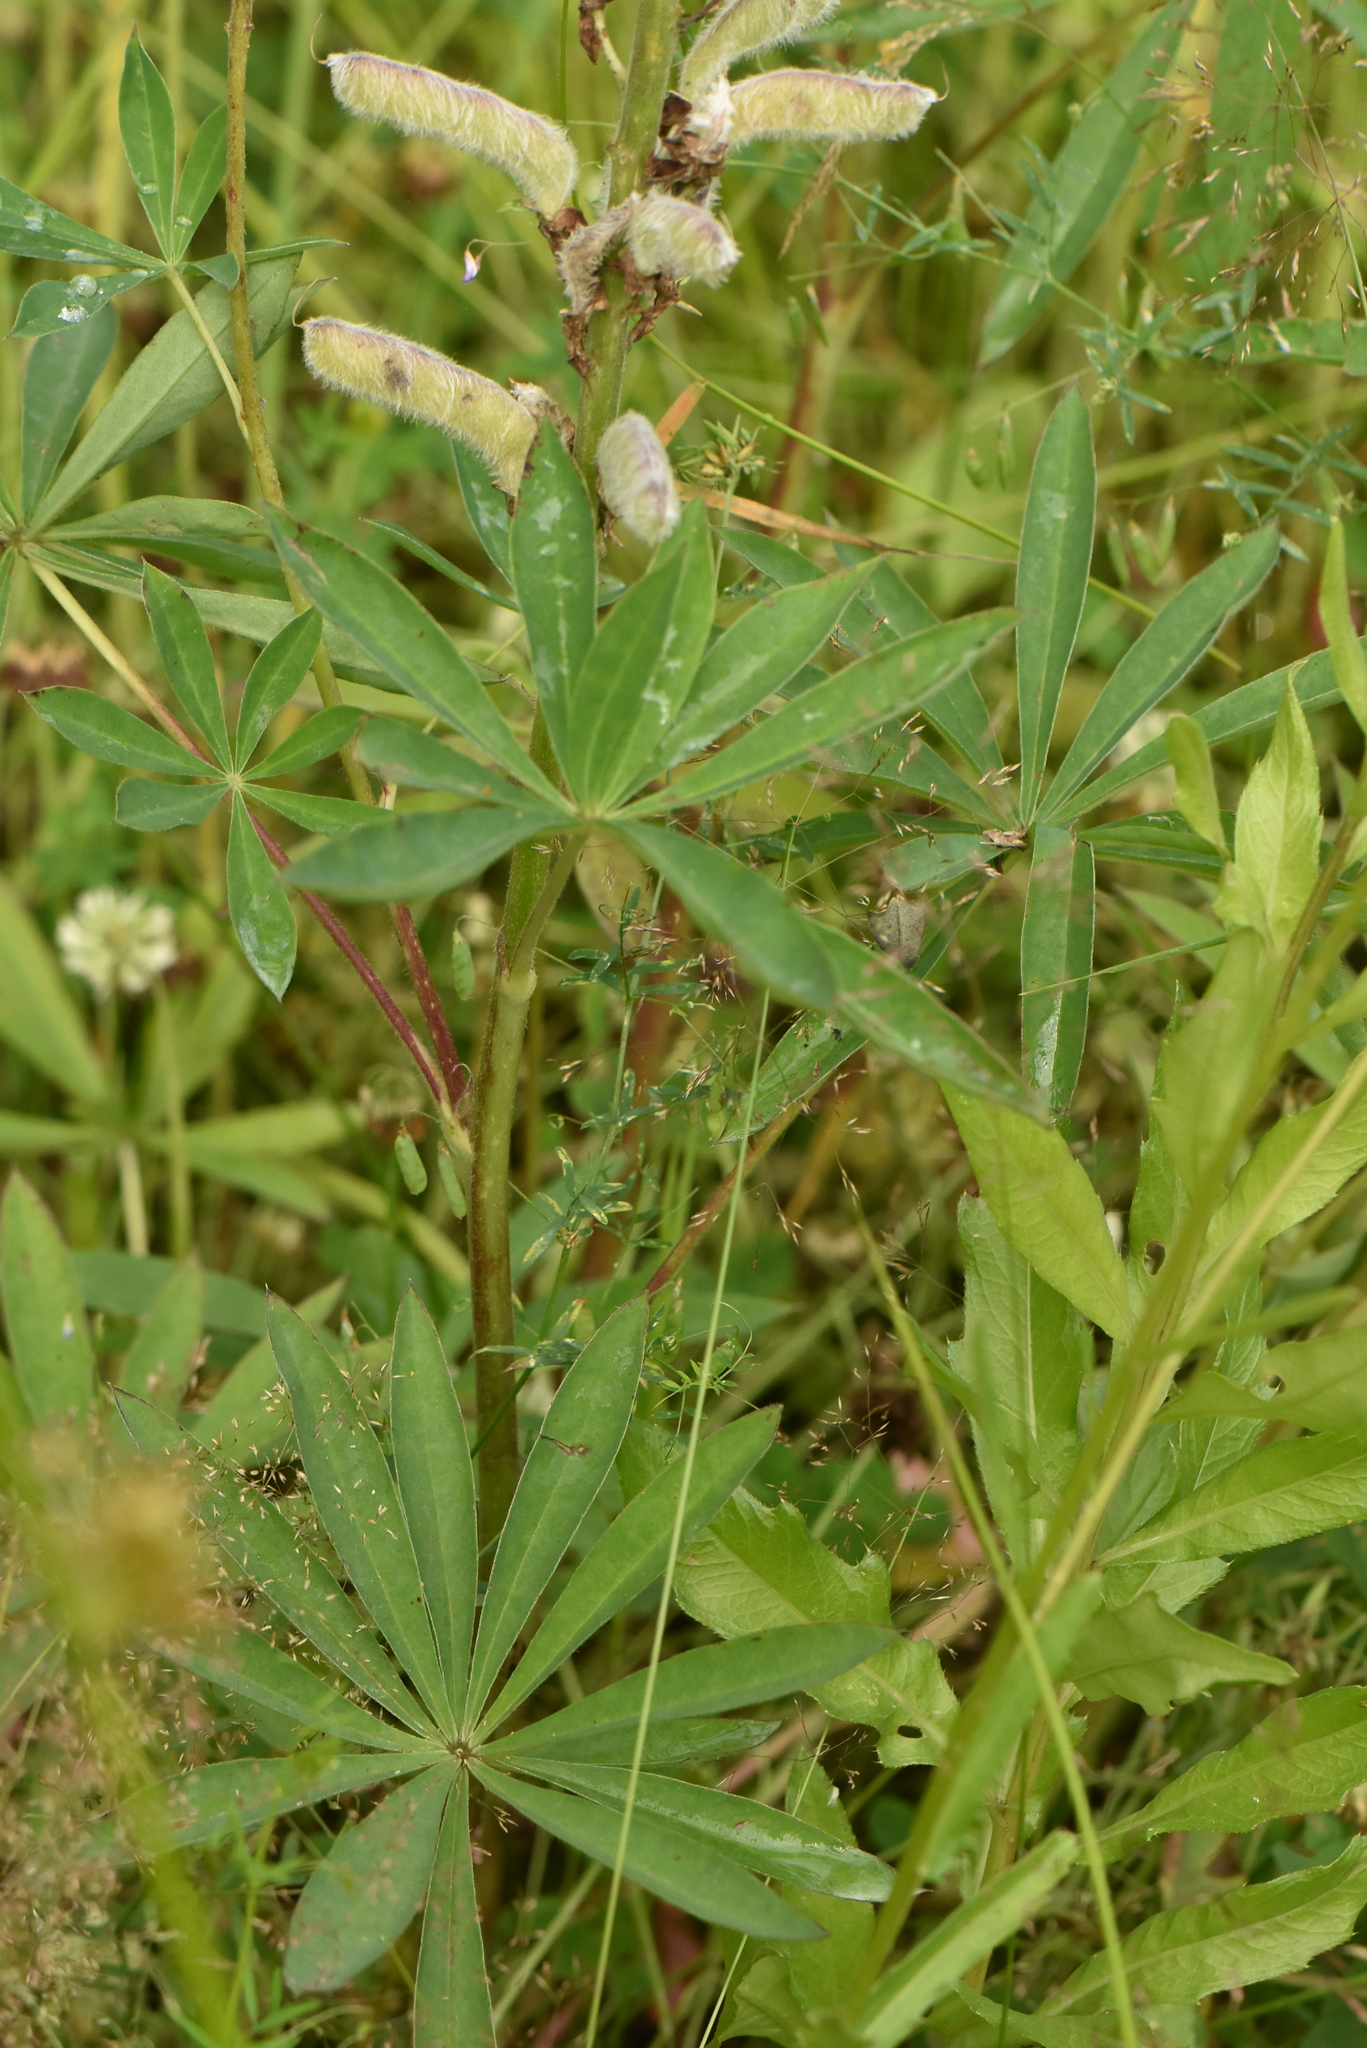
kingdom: Plantae
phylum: Tracheophyta
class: Magnoliopsida
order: Fabales
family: Fabaceae
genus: Lupinus
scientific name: Lupinus polyphyllus
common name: Garden lupin
